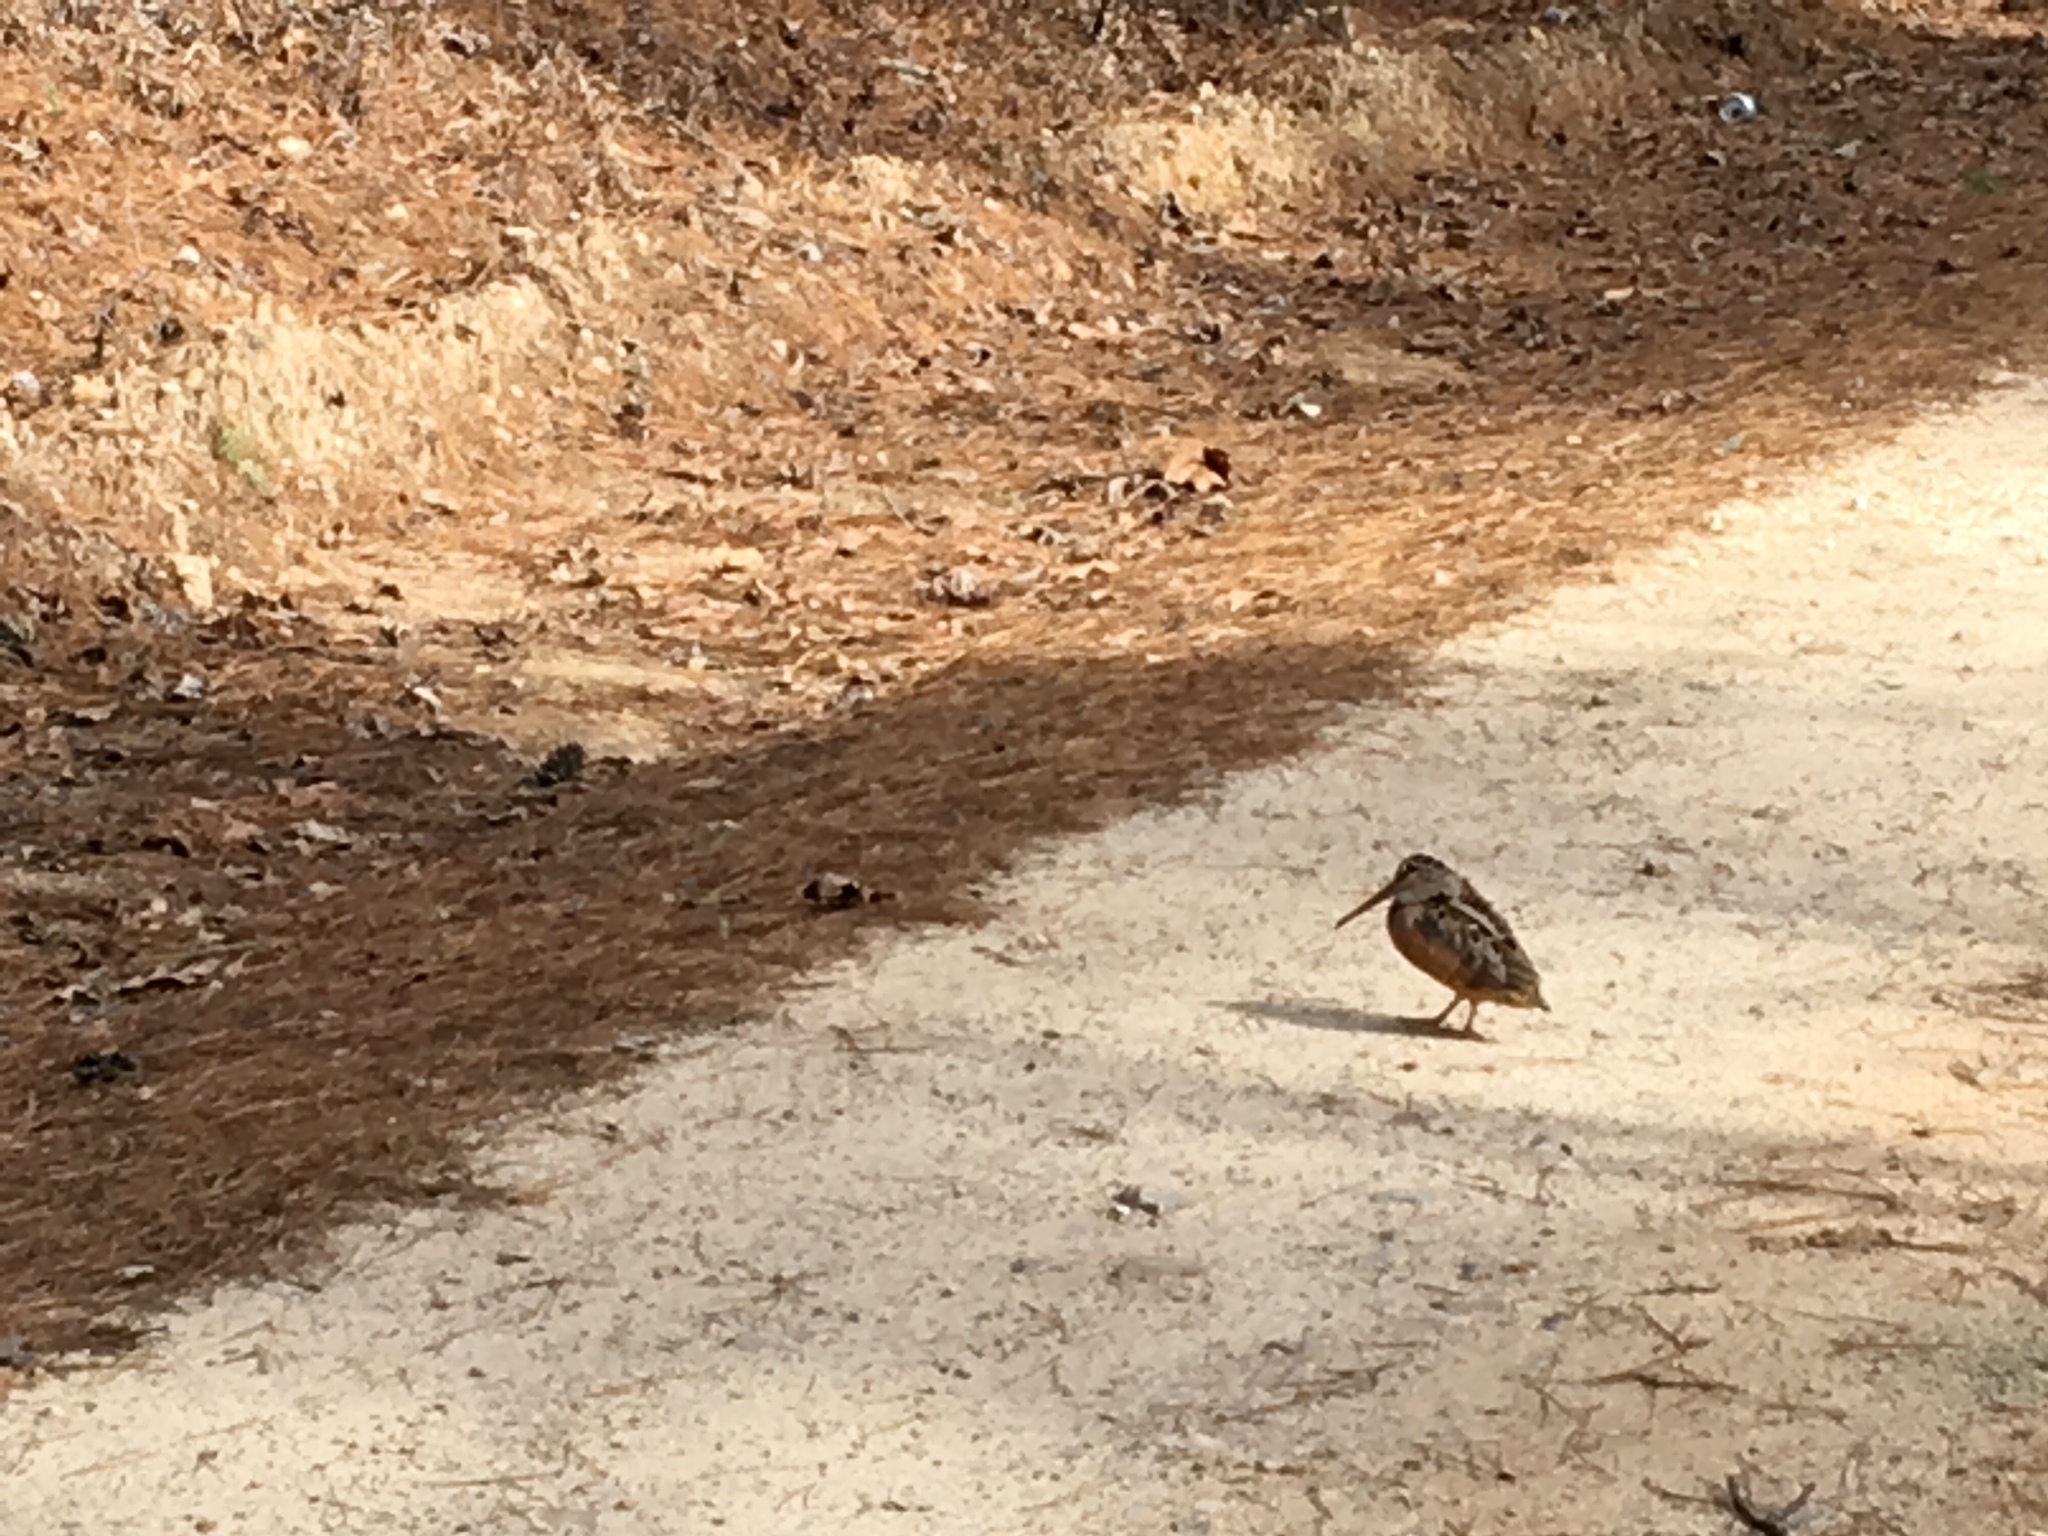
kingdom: Animalia
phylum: Chordata
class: Aves
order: Charadriiformes
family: Scolopacidae
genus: Scolopax
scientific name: Scolopax minor
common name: American woodcock
